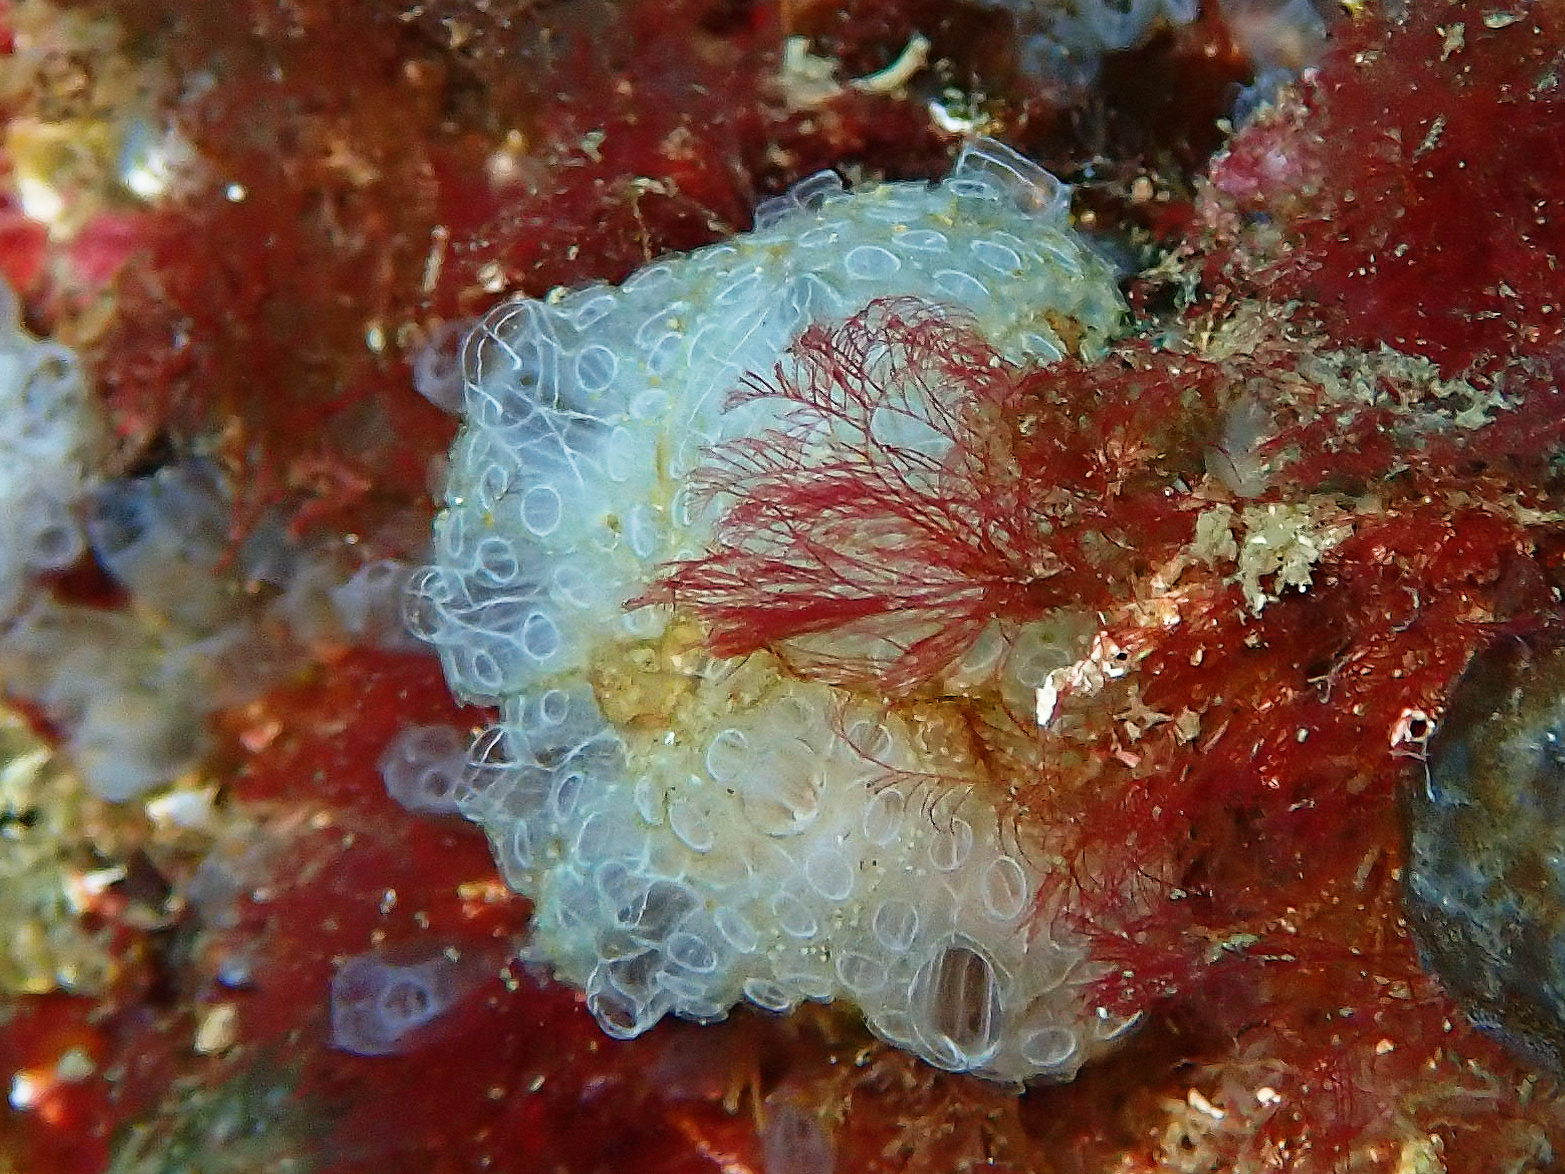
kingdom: Animalia
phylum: Chordata
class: Ascidiacea
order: Stolidobranchia
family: Styelidae
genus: Botrylloides
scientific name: Botrylloides crystallinus
